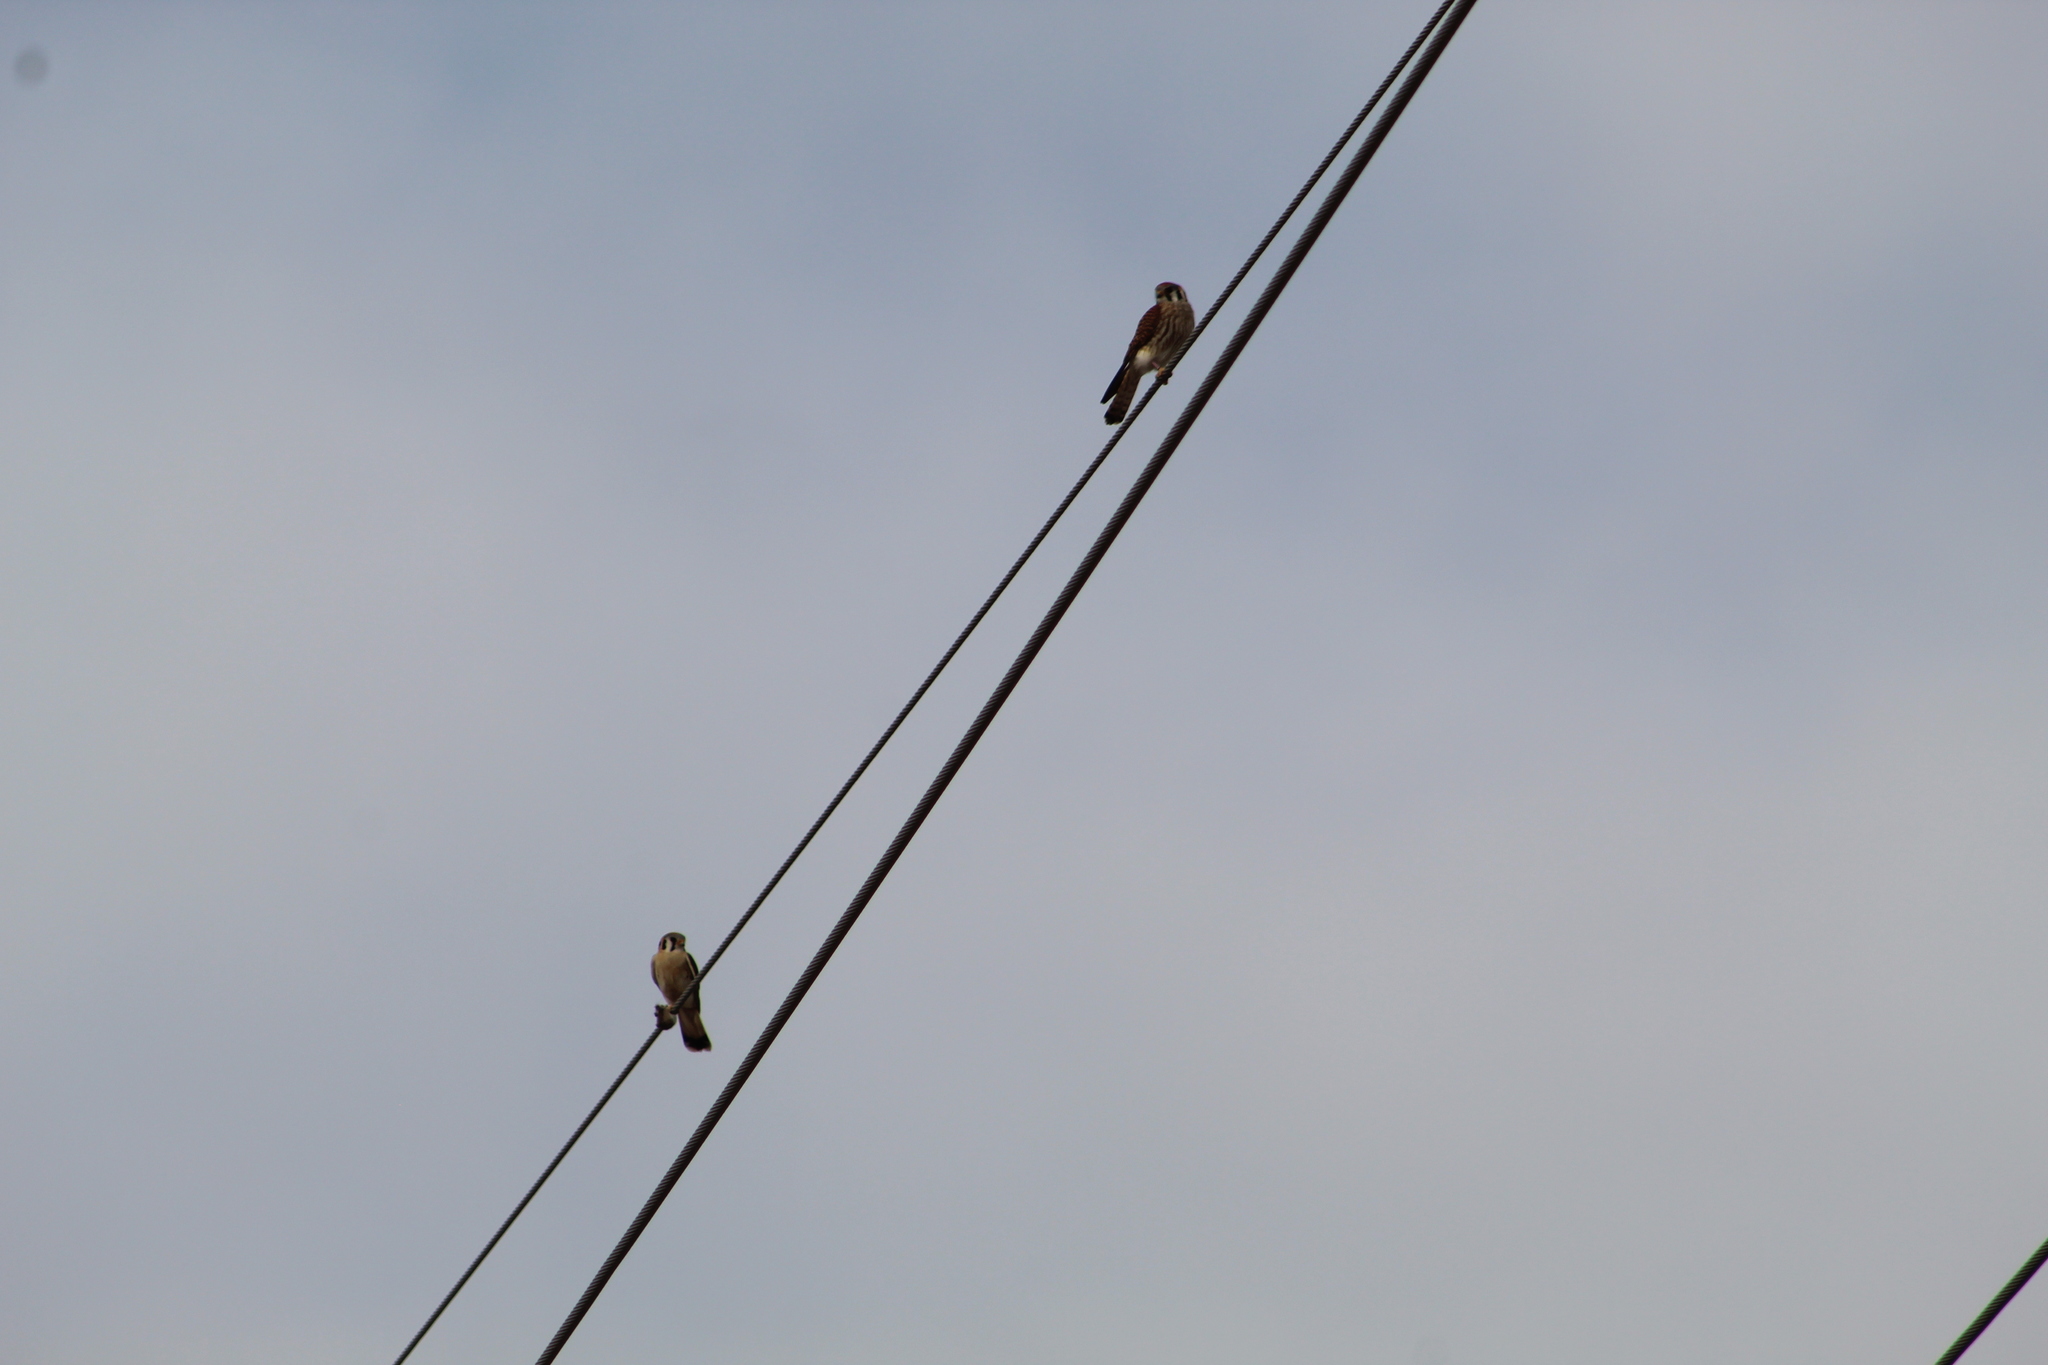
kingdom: Animalia
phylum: Chordata
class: Aves
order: Falconiformes
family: Falconidae
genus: Falco
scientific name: Falco sparverius
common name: American kestrel
